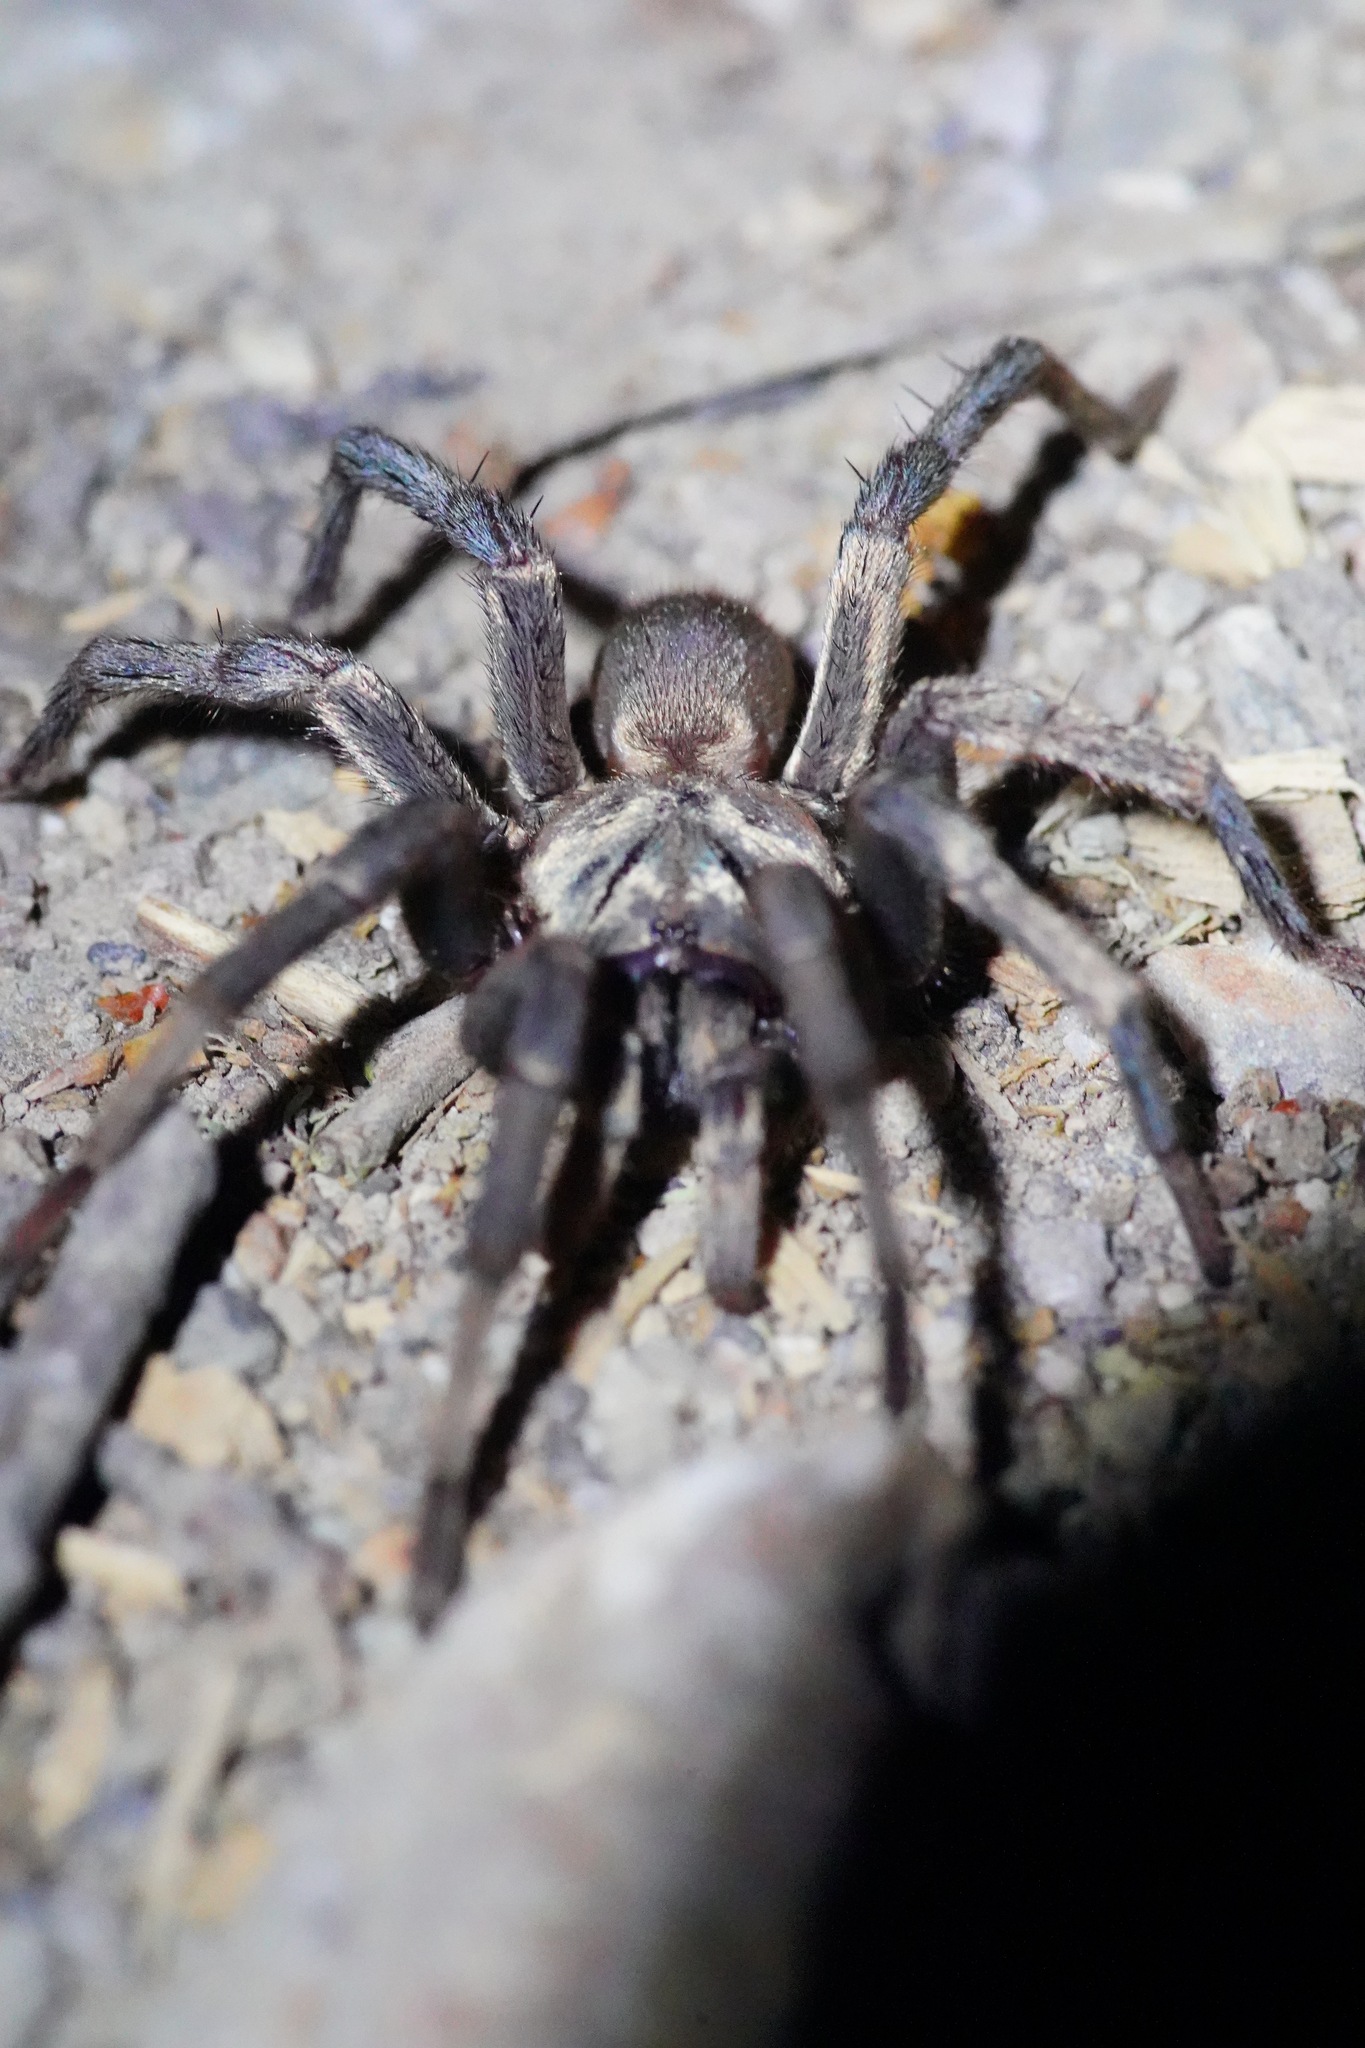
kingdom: Animalia
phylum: Arthropoda
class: Arachnida
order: Araneae
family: Nemesiidae
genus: Calisoga
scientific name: Calisoga longitarsis
